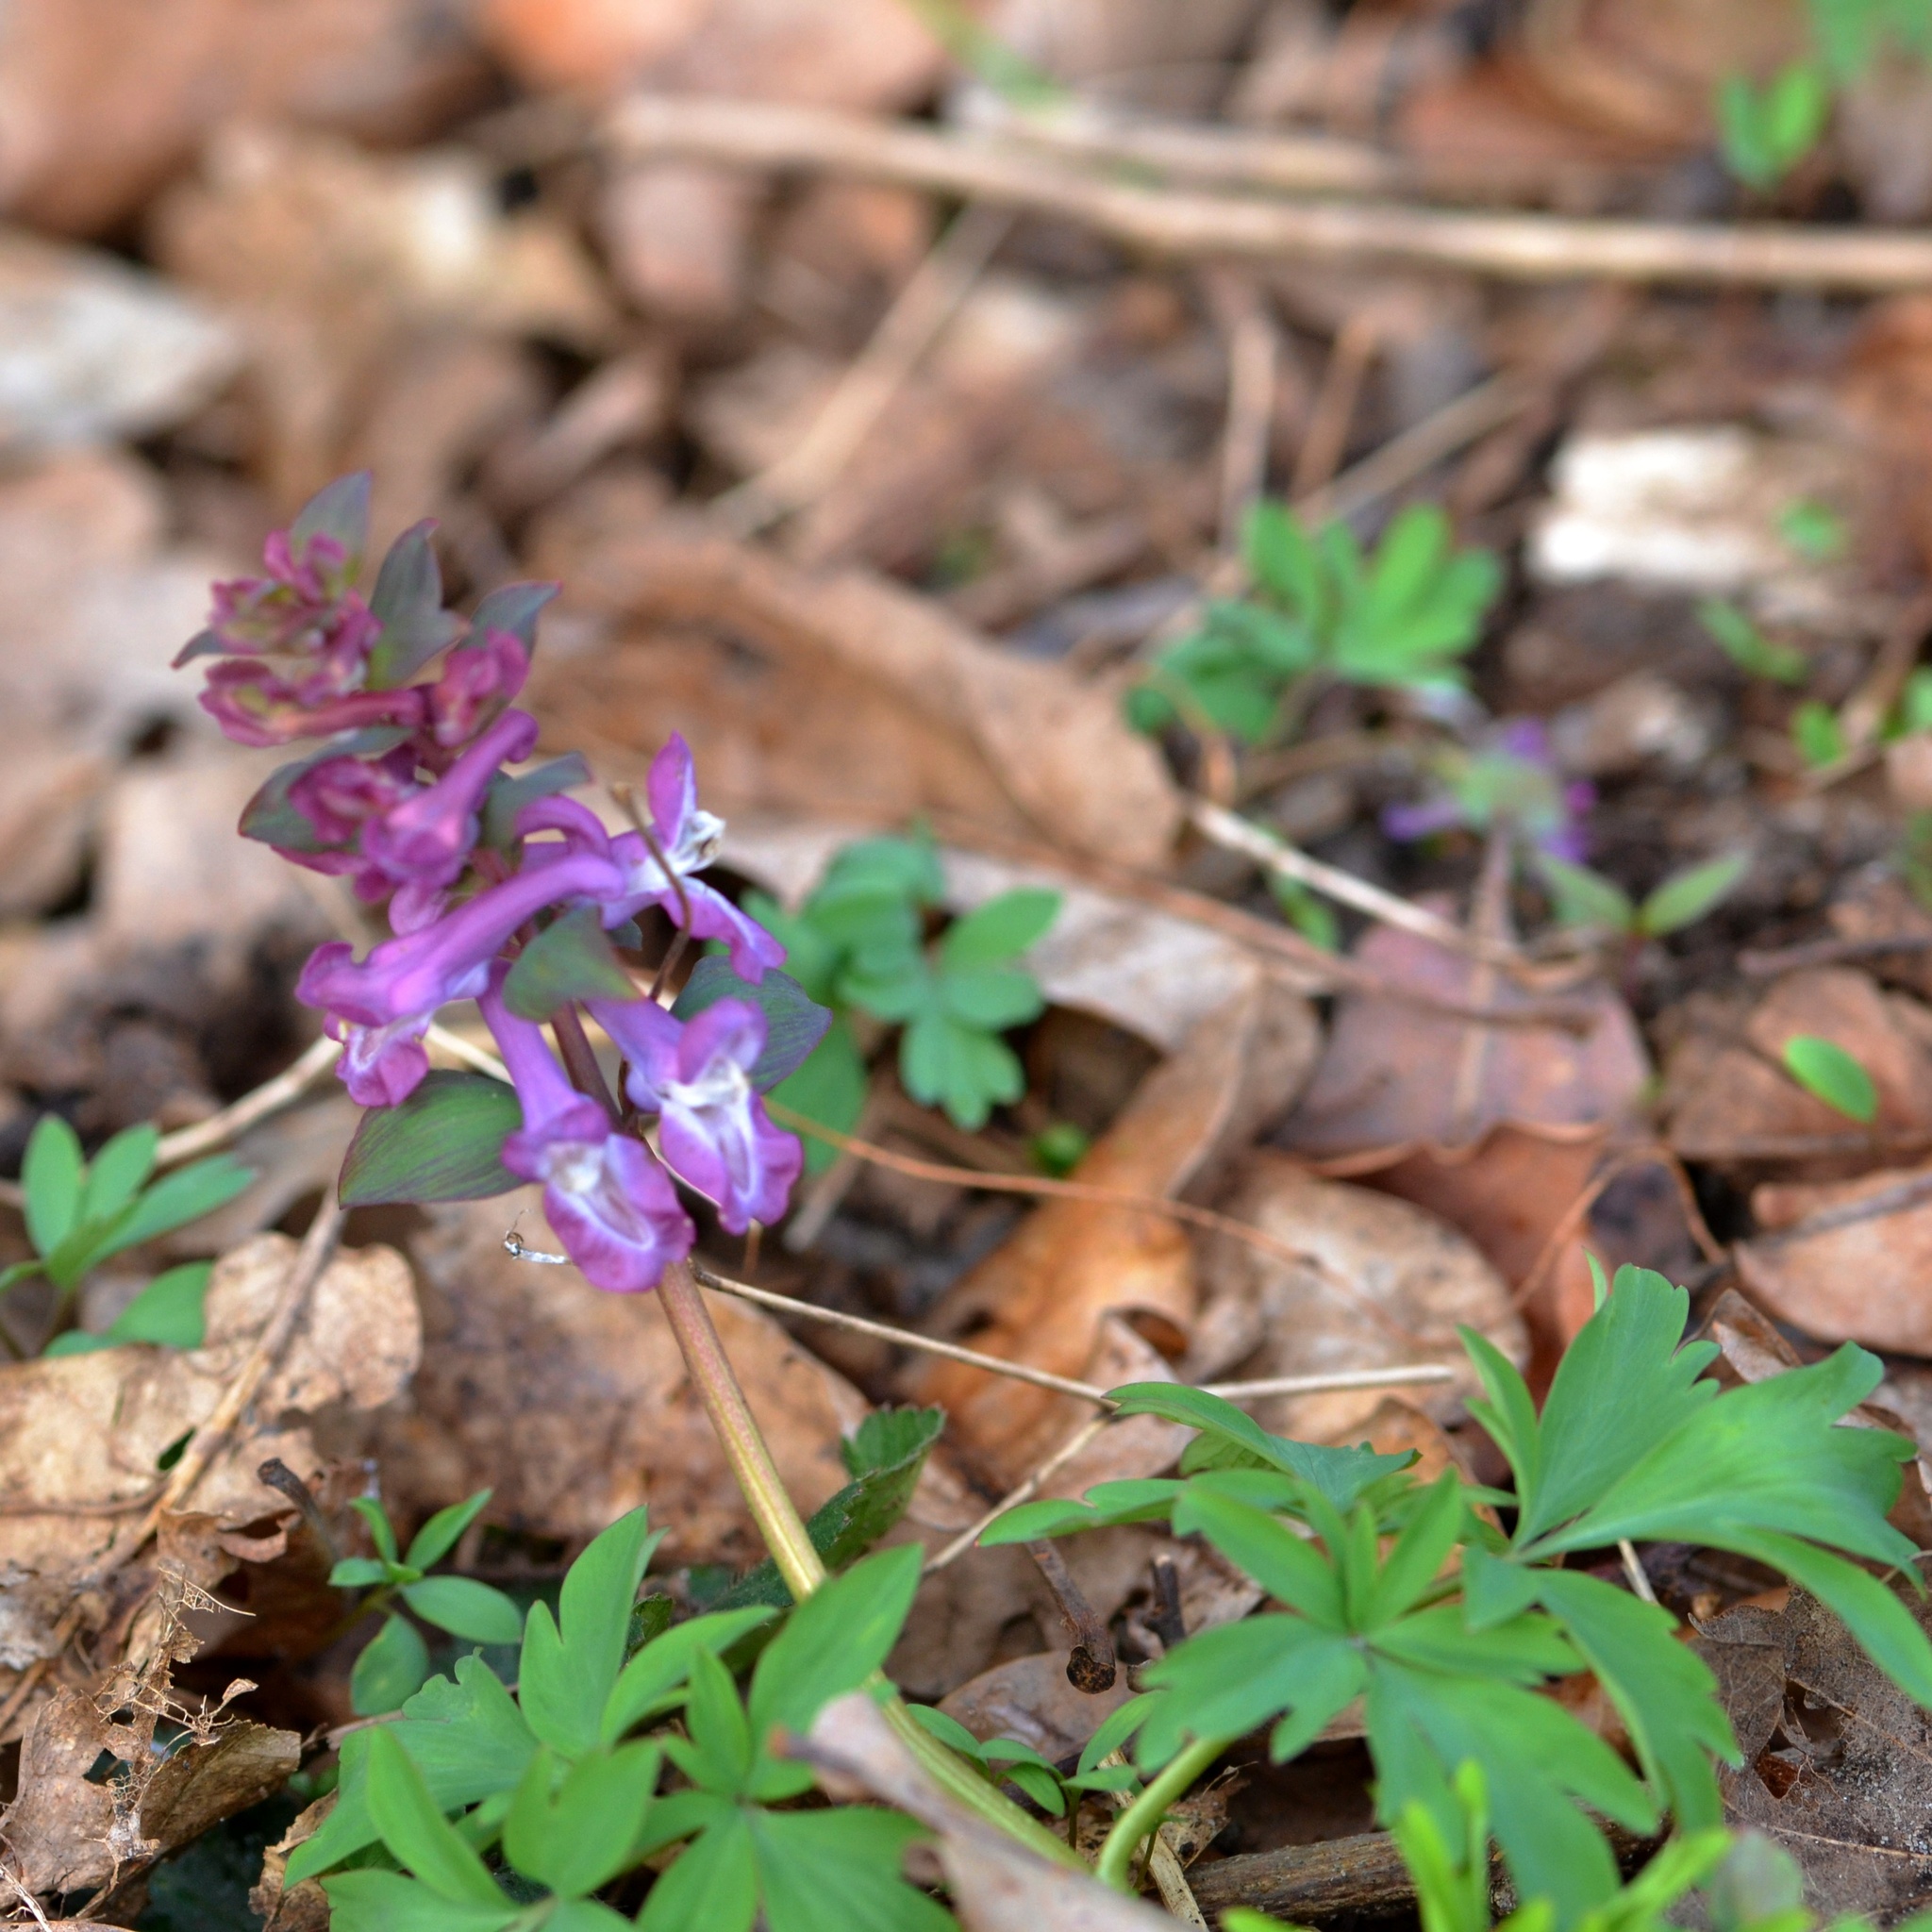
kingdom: Plantae
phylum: Tracheophyta
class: Magnoliopsida
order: Ranunculales
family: Papaveraceae
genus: Corydalis
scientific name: Corydalis cava
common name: Hollowroot
